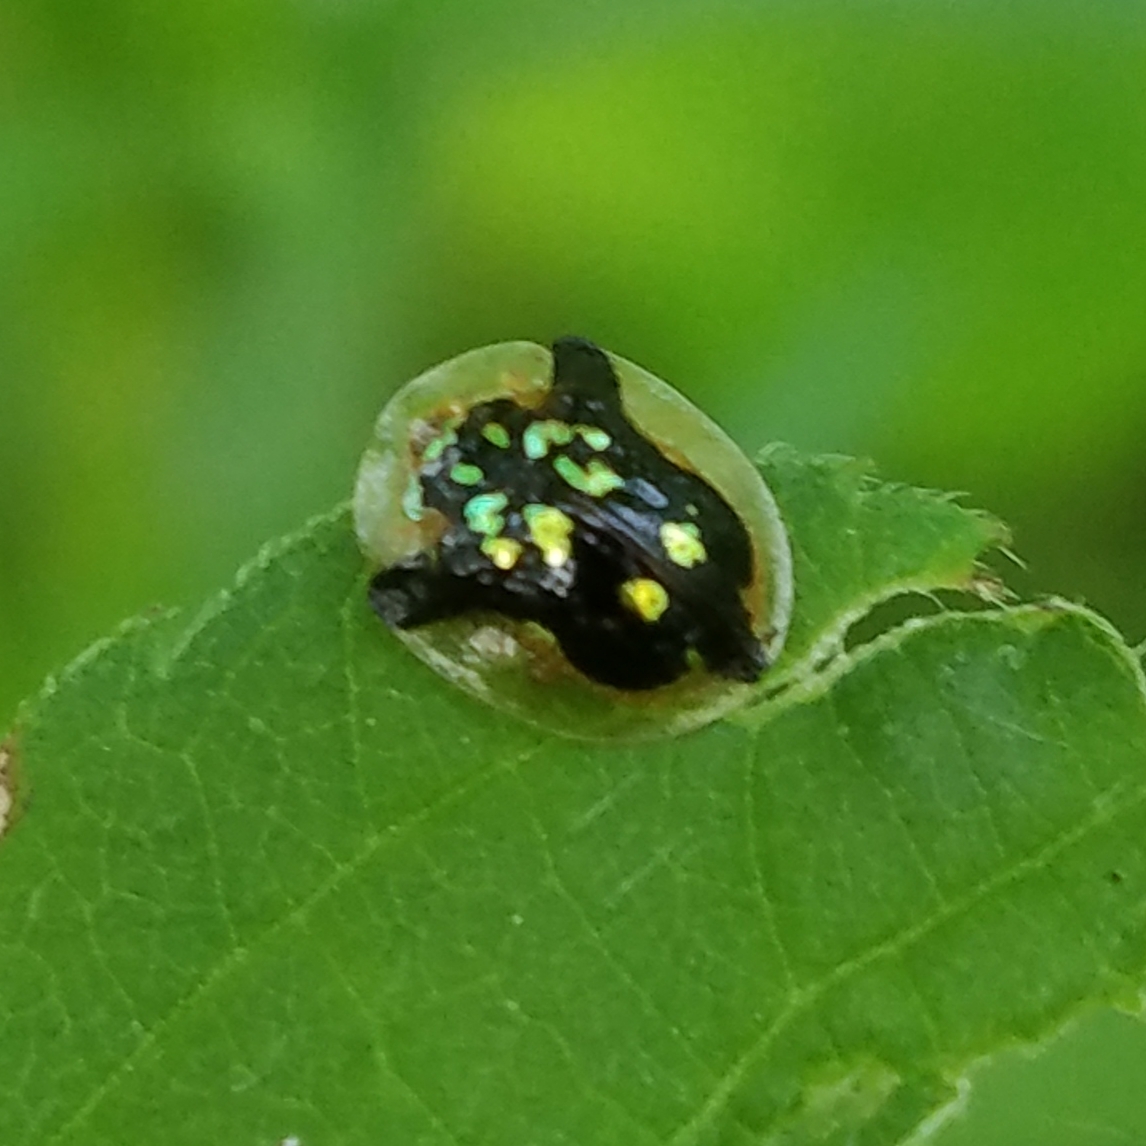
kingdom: Animalia
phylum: Arthropoda
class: Insecta
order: Coleoptera
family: Chrysomelidae
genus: Deloyala
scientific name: Deloyala guttata
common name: Mottled tortoise beetle
